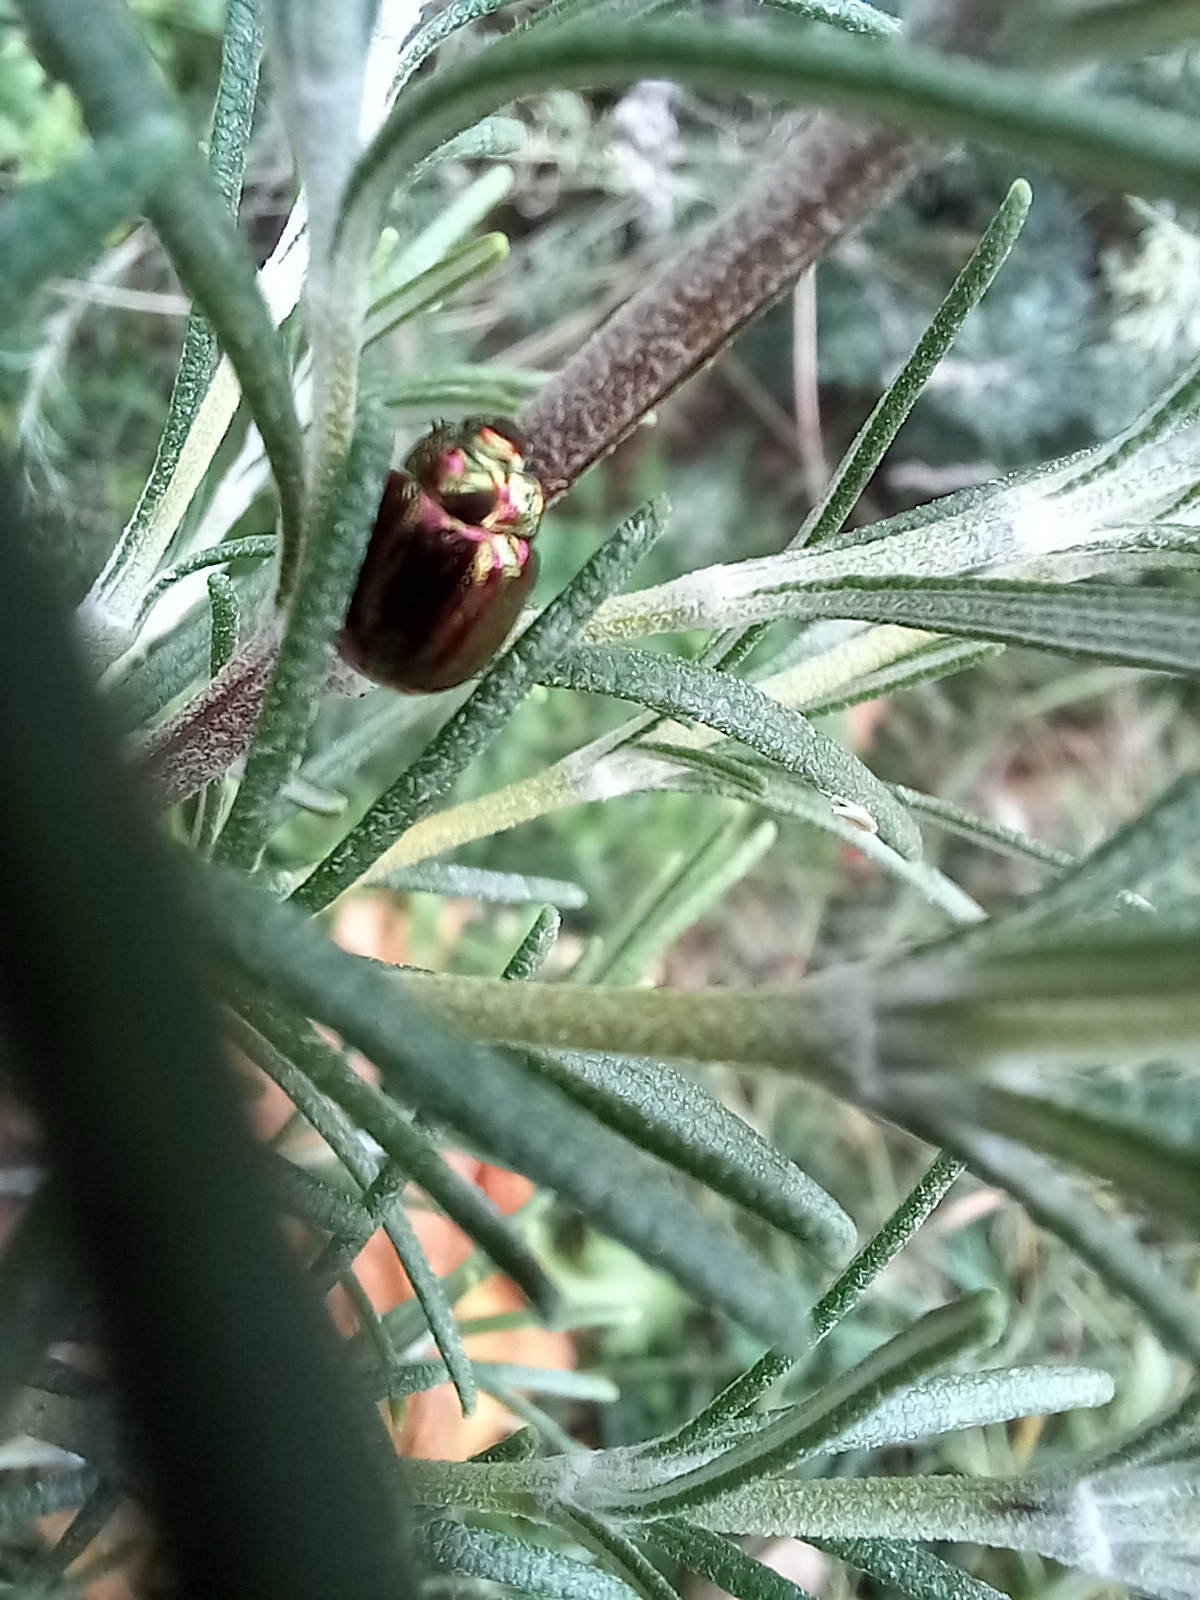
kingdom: Animalia
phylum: Arthropoda
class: Insecta
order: Coleoptera
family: Chrysomelidae
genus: Chrysolina
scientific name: Chrysolina americana
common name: Rosemary beetle
